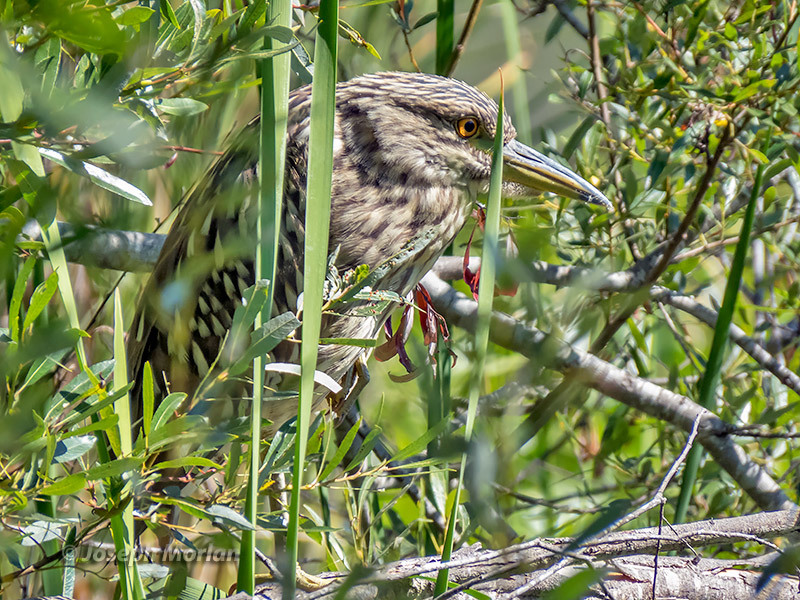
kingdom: Animalia
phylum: Chordata
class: Aves
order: Pelecaniformes
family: Ardeidae
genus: Nycticorax
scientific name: Nycticorax nycticorax
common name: Black-crowned night heron
